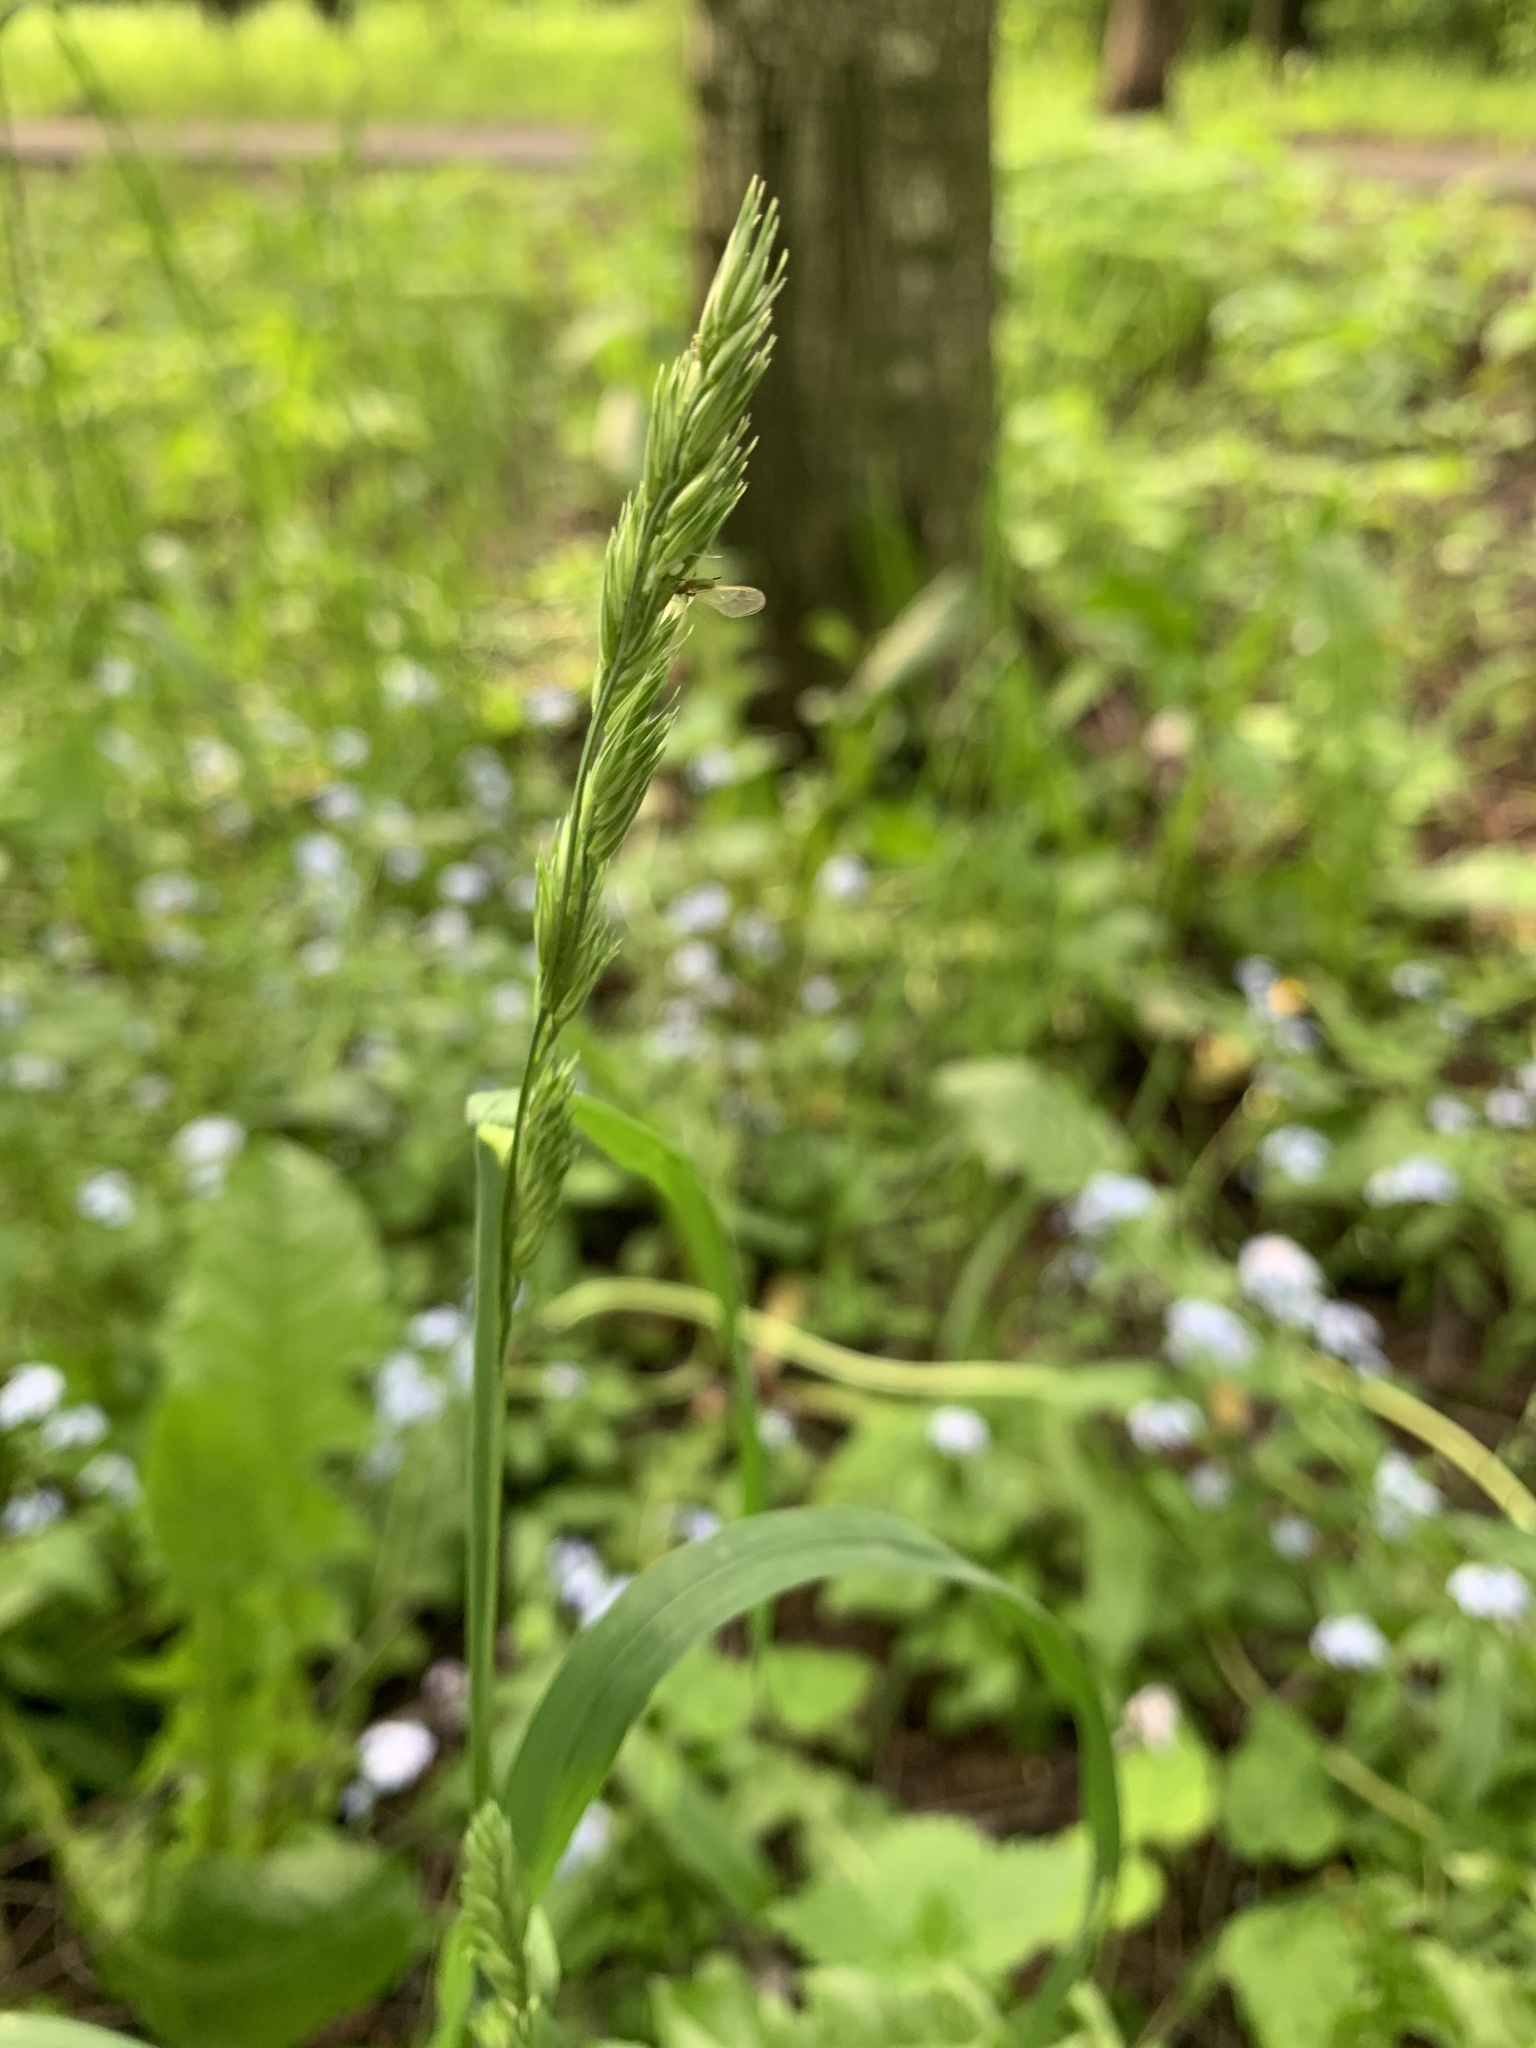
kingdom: Plantae
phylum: Tracheophyta
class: Liliopsida
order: Poales
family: Poaceae
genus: Dactylis
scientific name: Dactylis glomerata
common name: Orchardgrass
